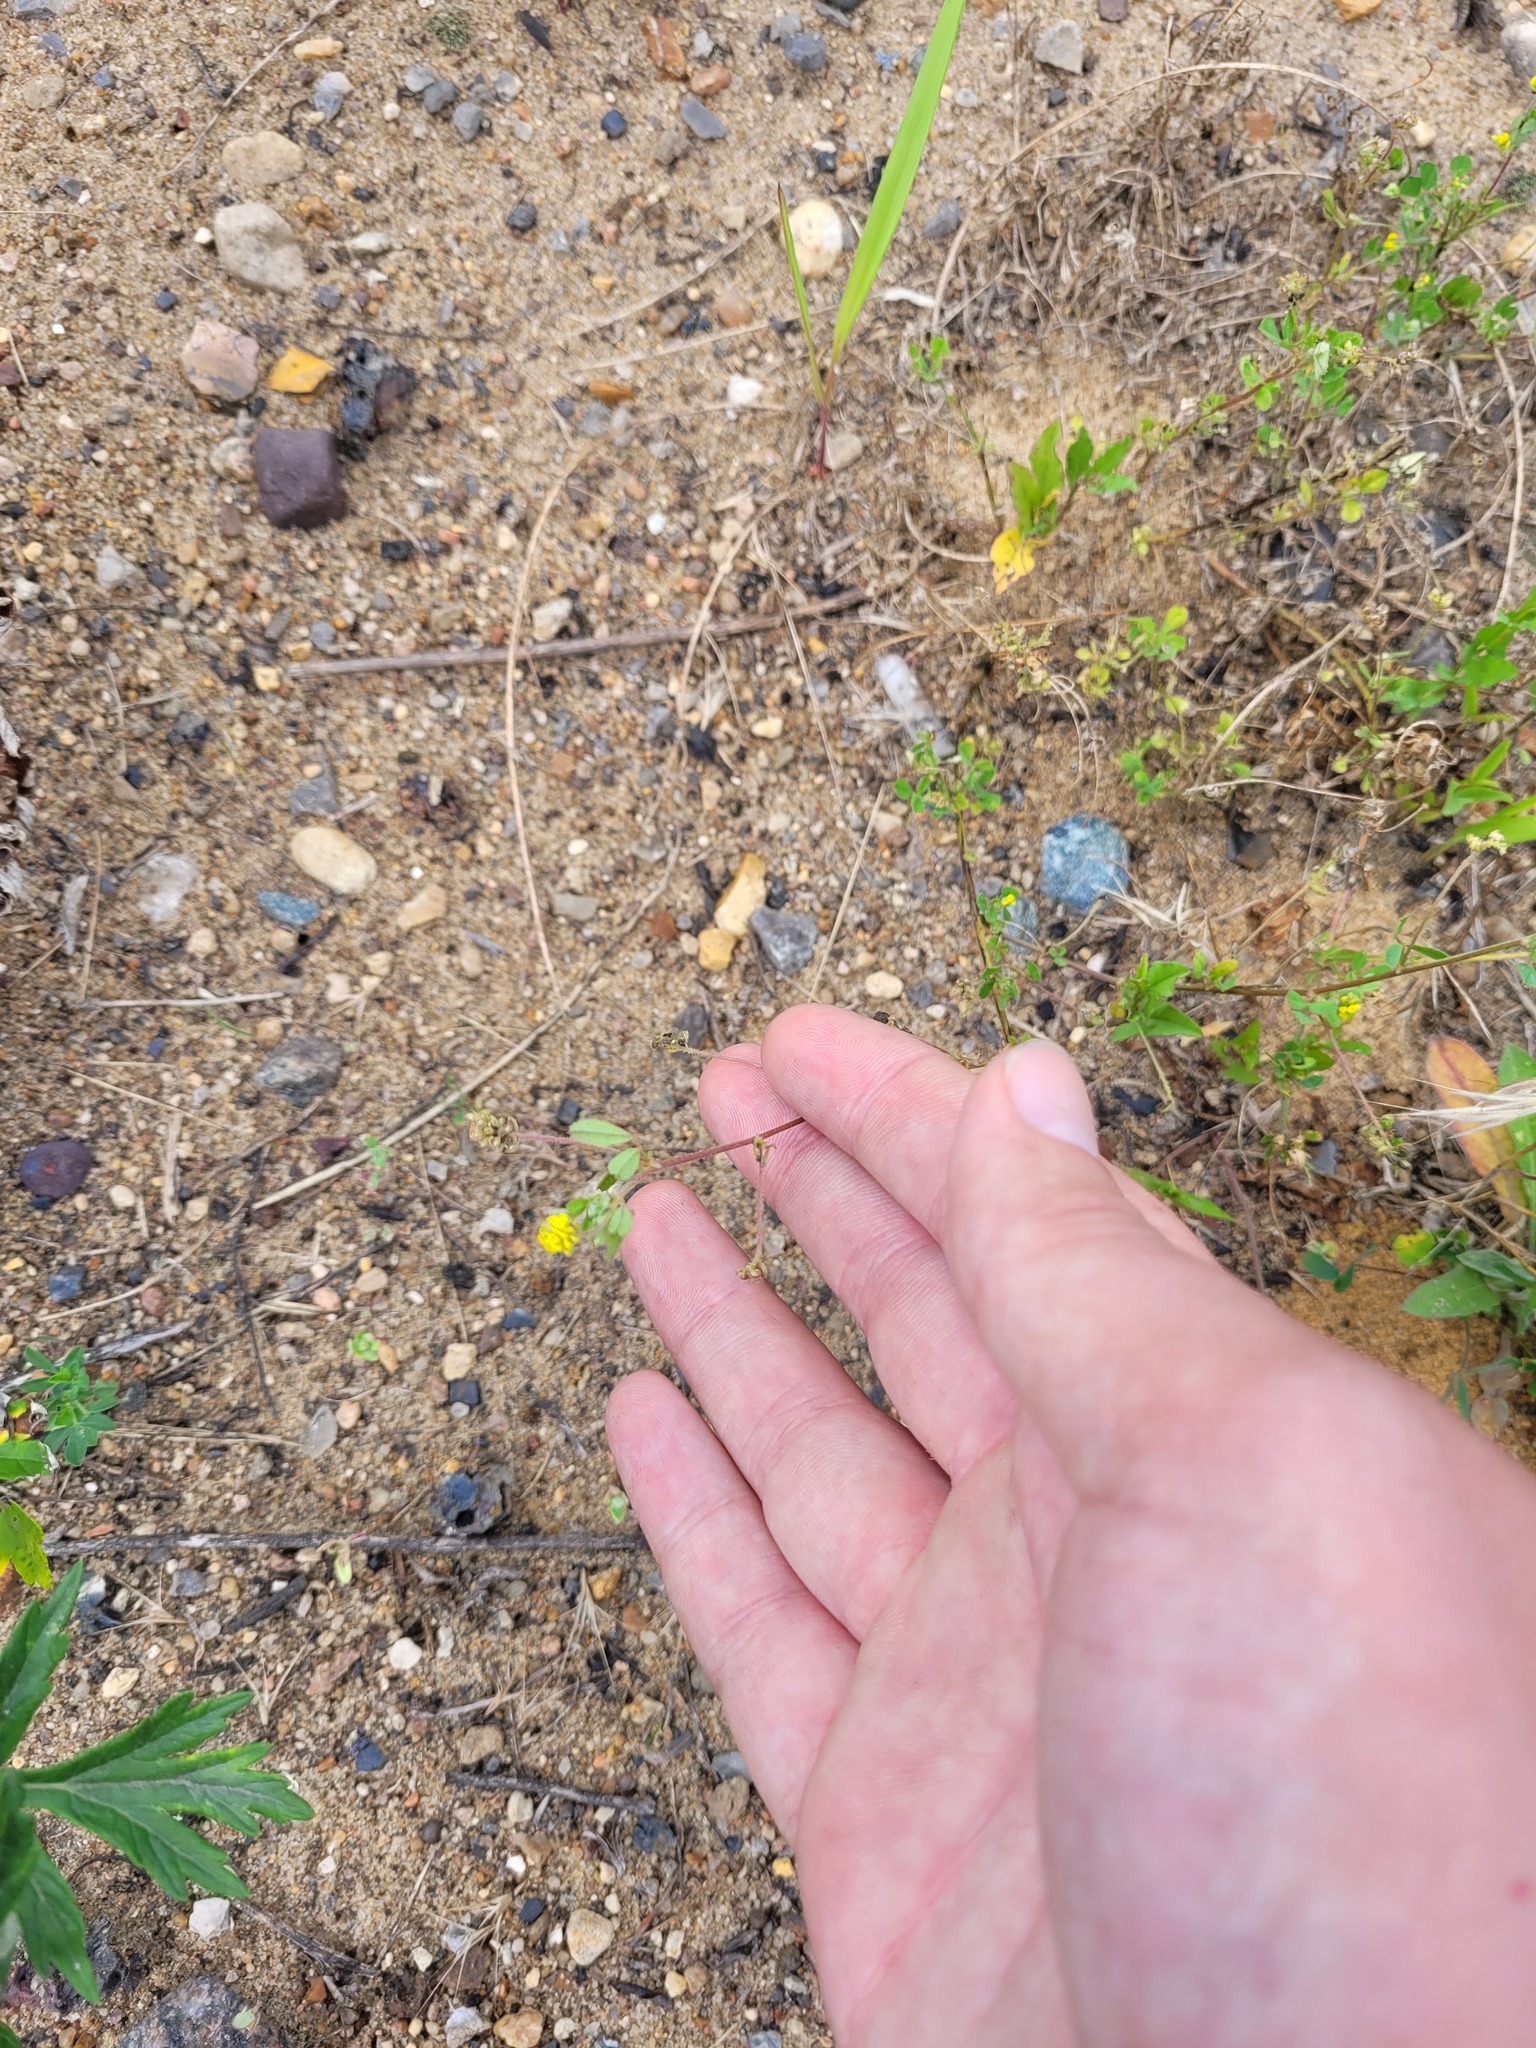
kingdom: Plantae
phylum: Tracheophyta
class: Magnoliopsida
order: Fabales
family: Fabaceae
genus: Medicago
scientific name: Medicago lupulina
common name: Black medick
